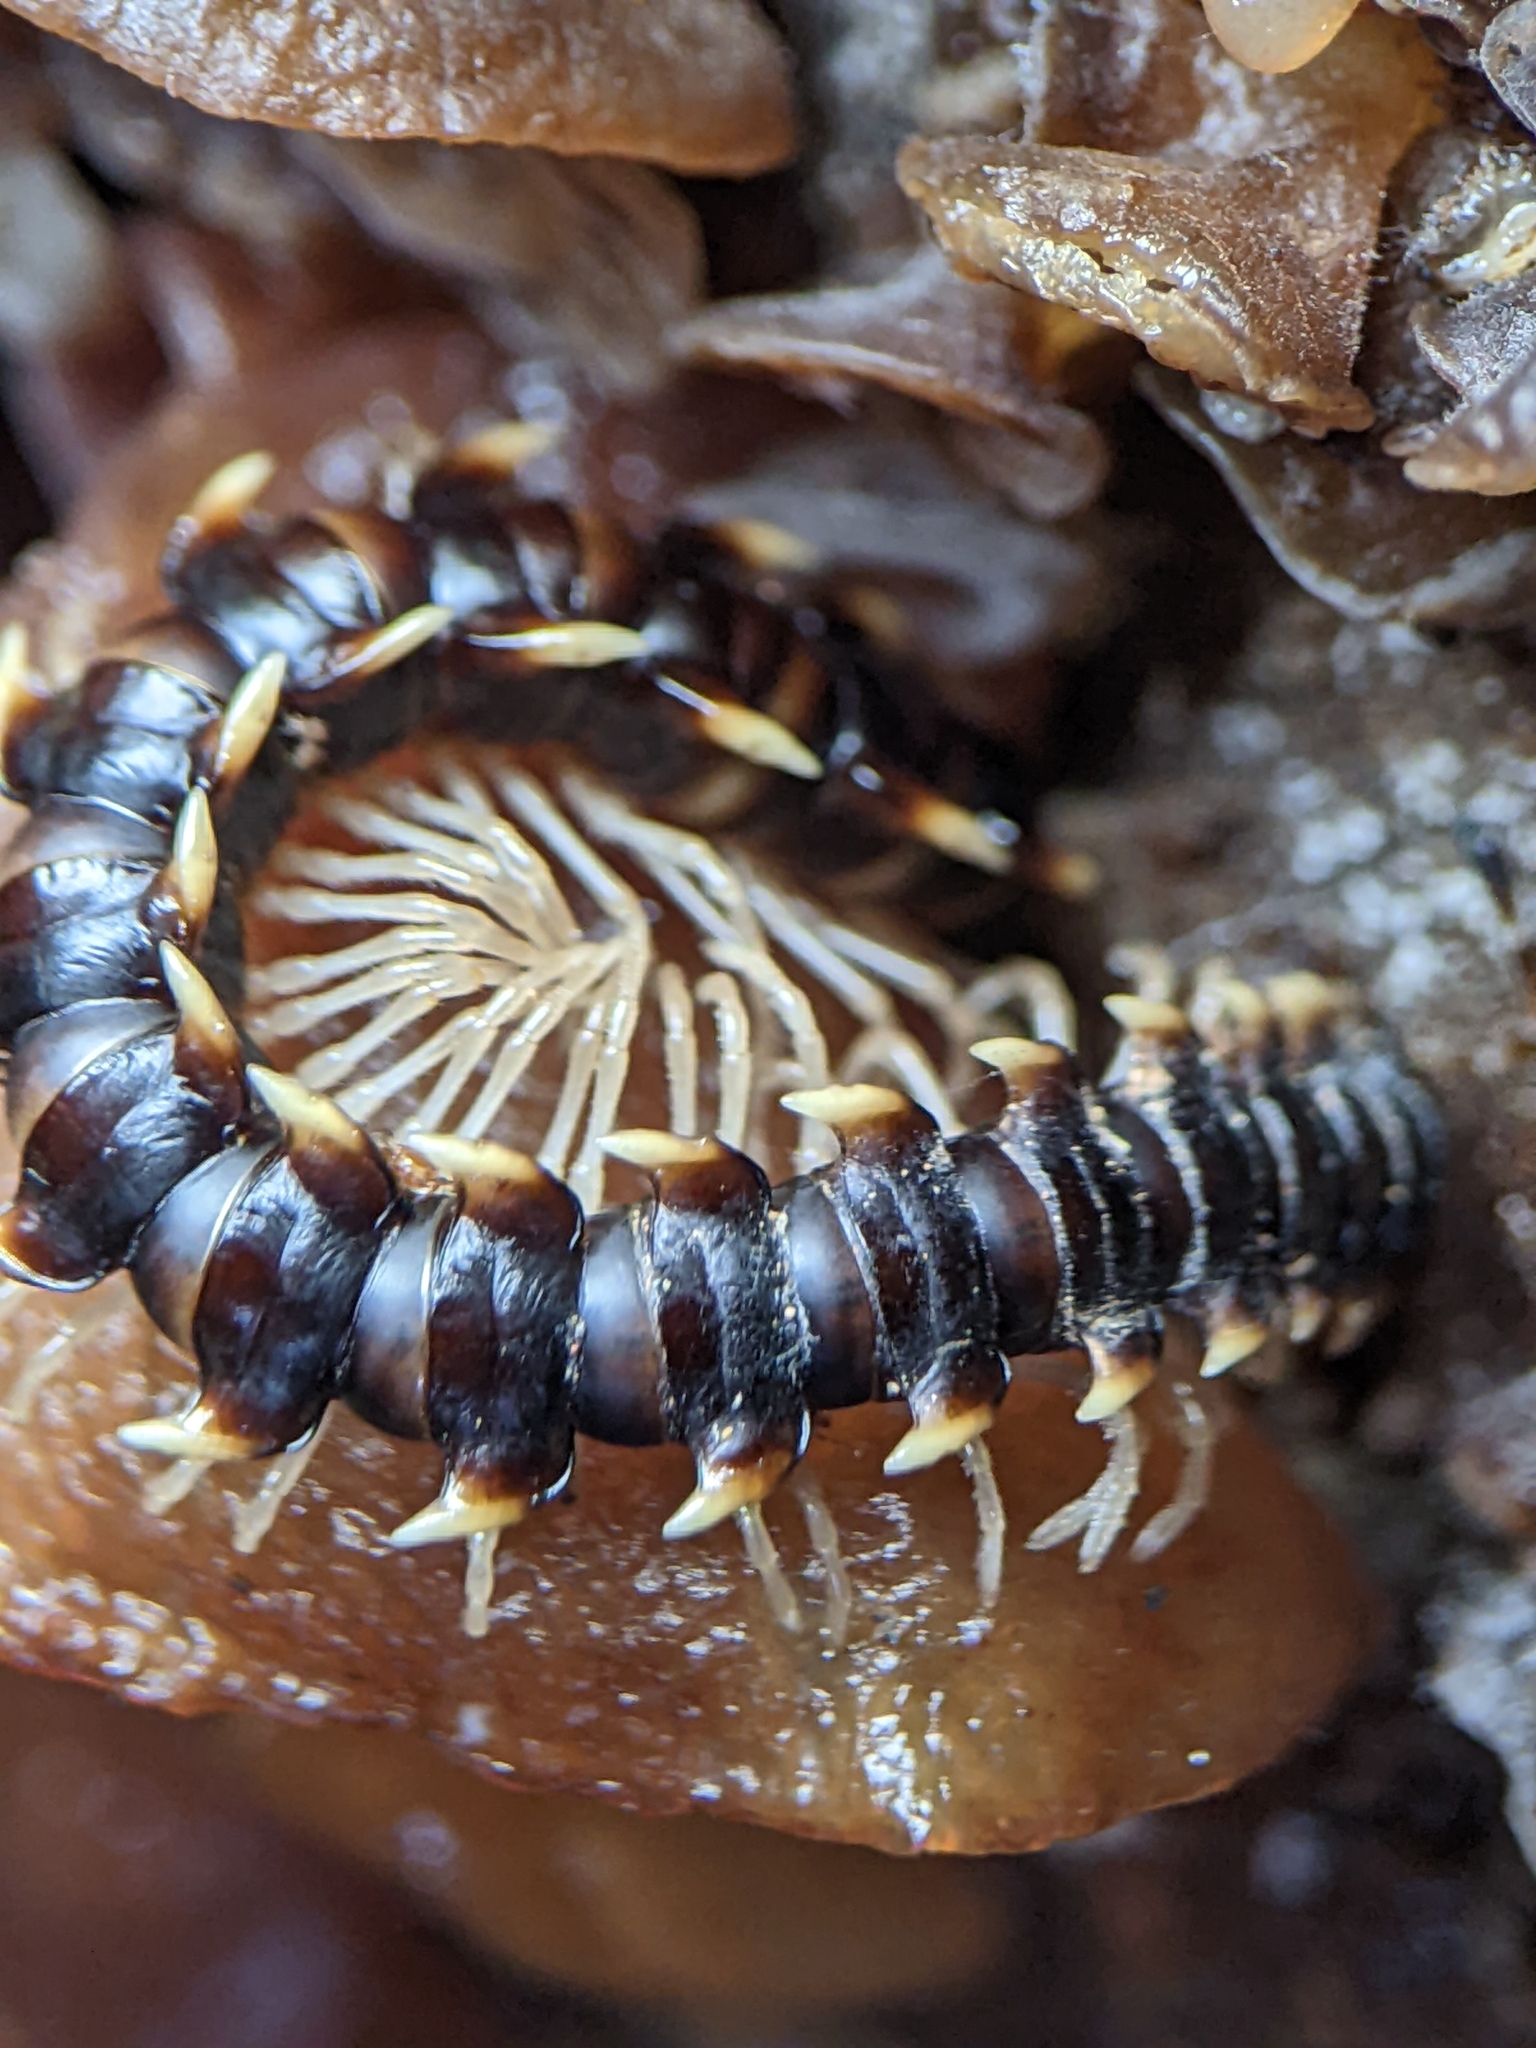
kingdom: Animalia
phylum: Arthropoda
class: Diplopoda
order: Polydesmida
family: Paradoxosomatidae
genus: Orthomorpha
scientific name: Orthomorpha murphyi
